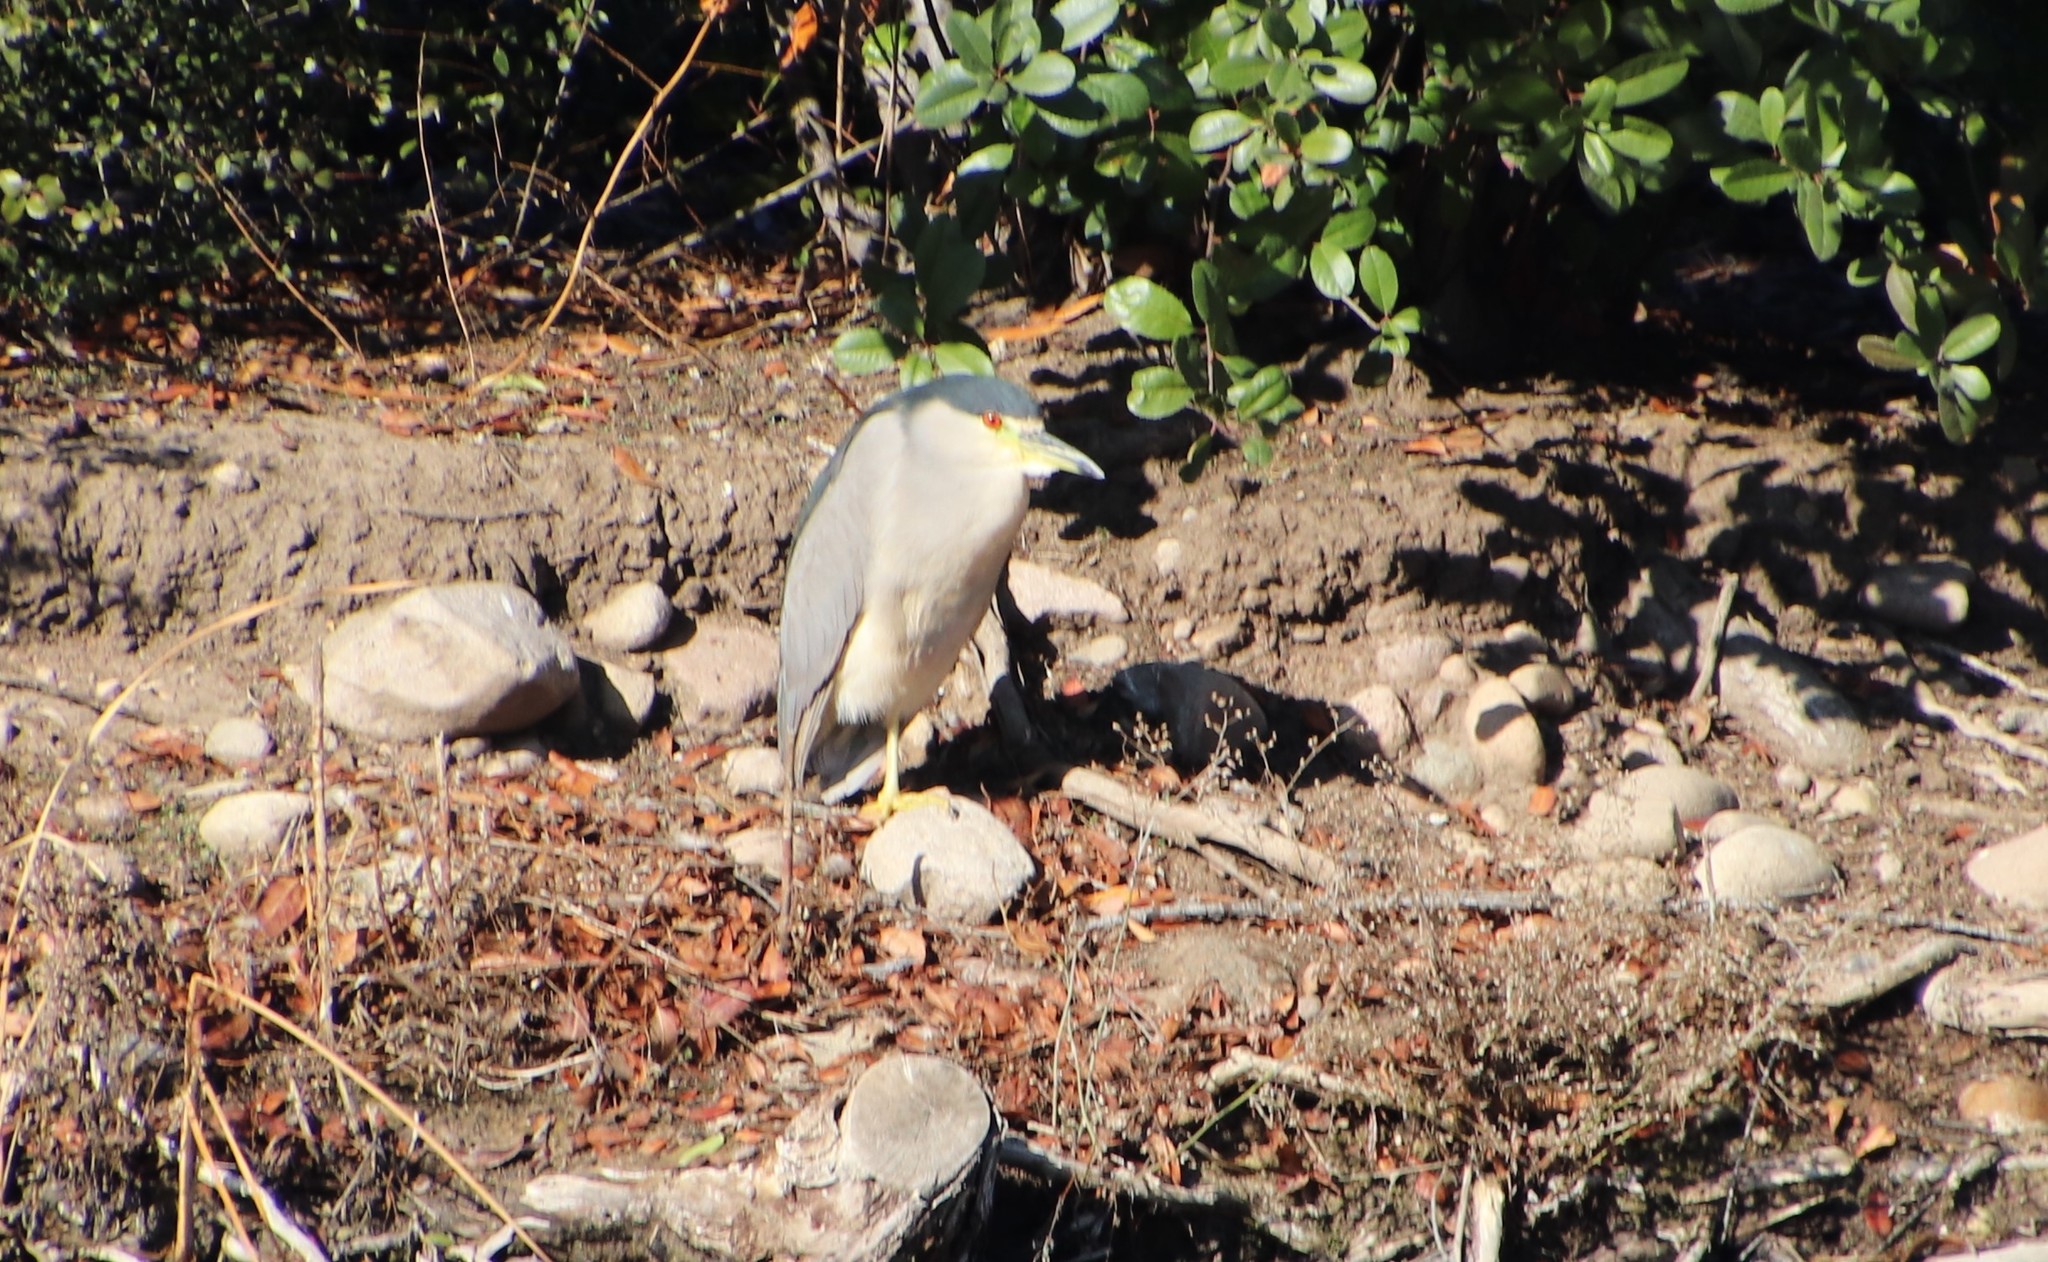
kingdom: Animalia
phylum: Chordata
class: Aves
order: Pelecaniformes
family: Ardeidae
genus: Nycticorax
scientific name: Nycticorax nycticorax
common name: Black-crowned night heron
